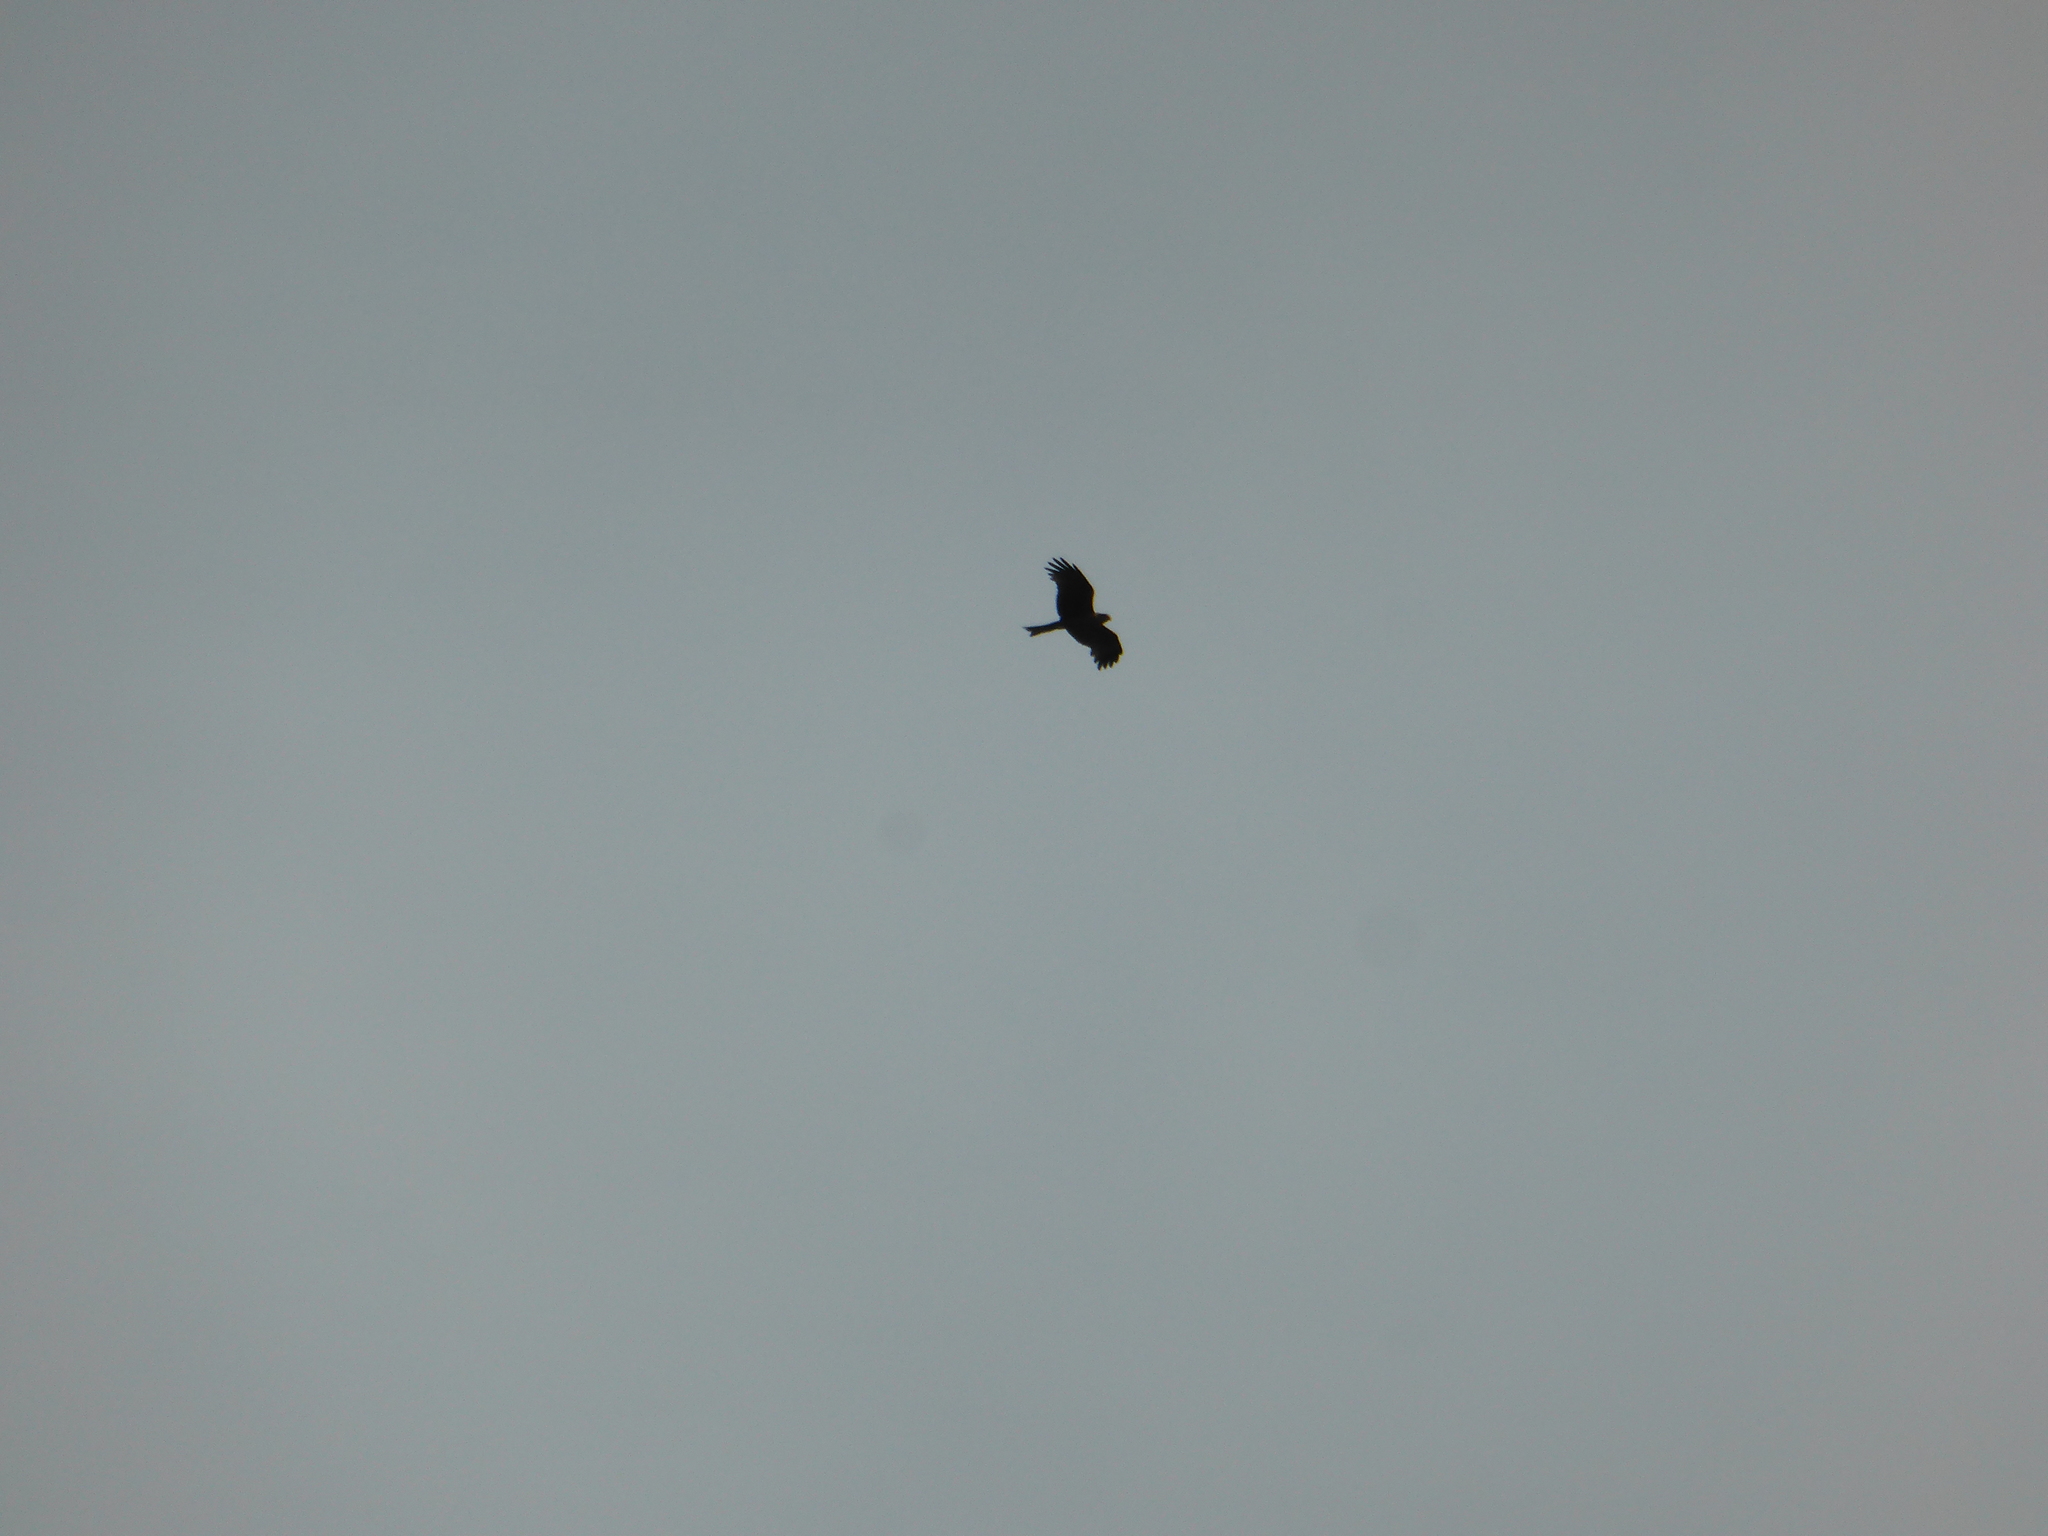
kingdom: Animalia
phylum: Chordata
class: Aves
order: Accipitriformes
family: Accipitridae
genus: Milvus
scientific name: Milvus migrans
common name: Black kite
